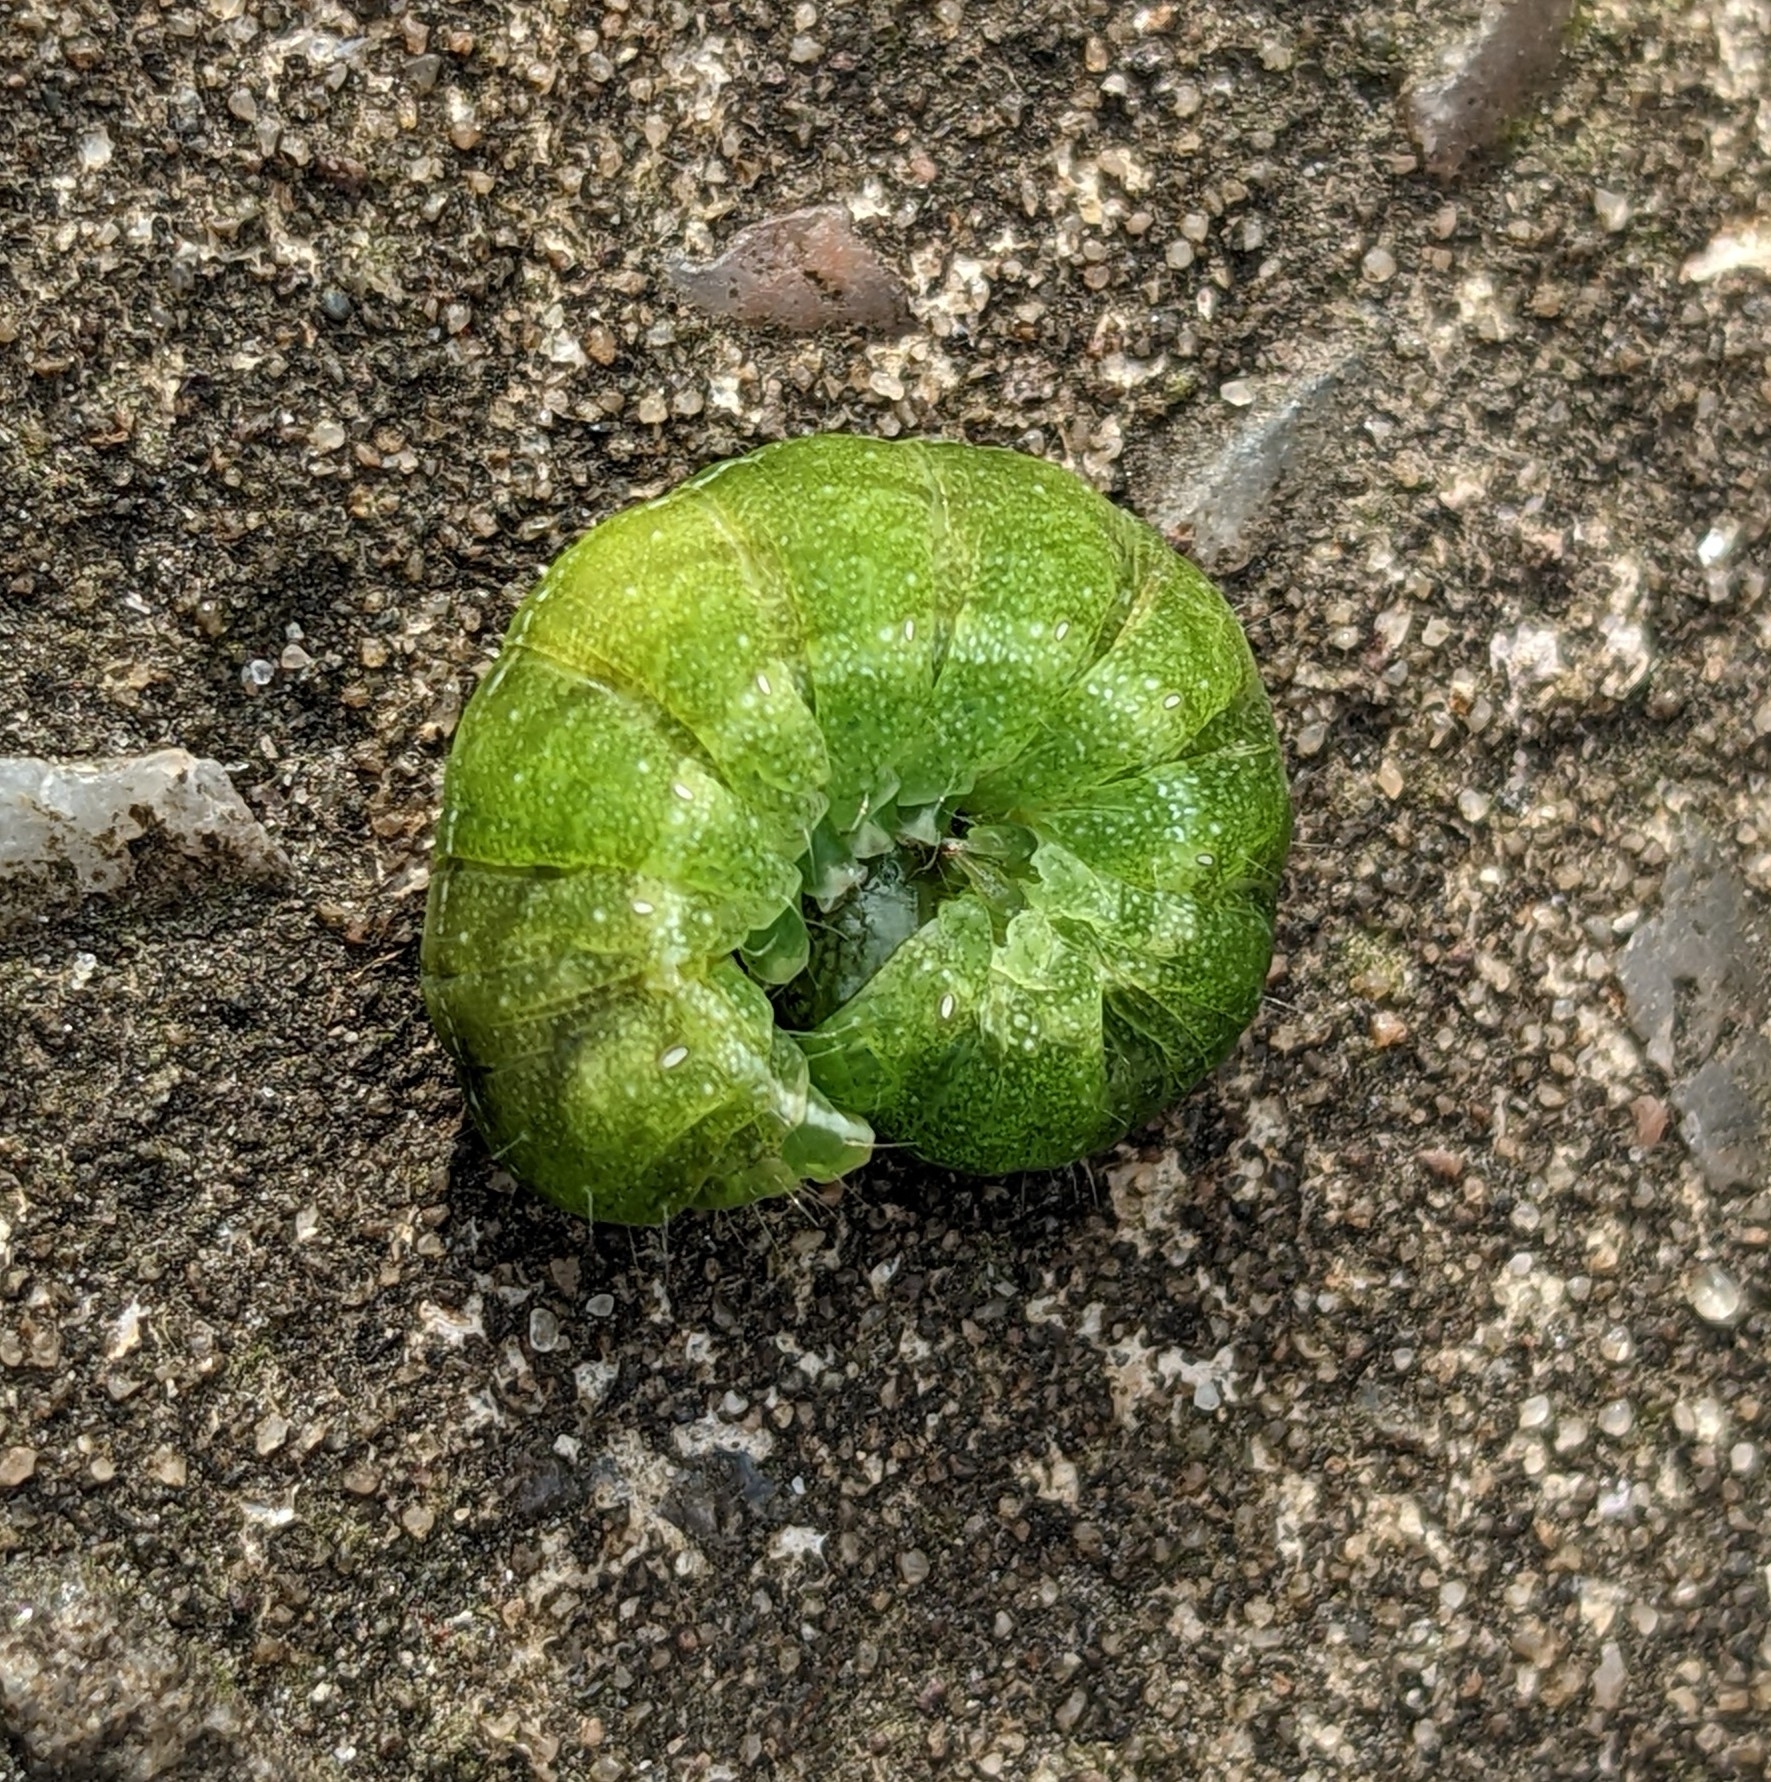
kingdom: Animalia
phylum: Arthropoda
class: Insecta
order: Lepidoptera
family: Noctuidae
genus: Phlogophora
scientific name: Phlogophora meticulosa
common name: Angle shades
